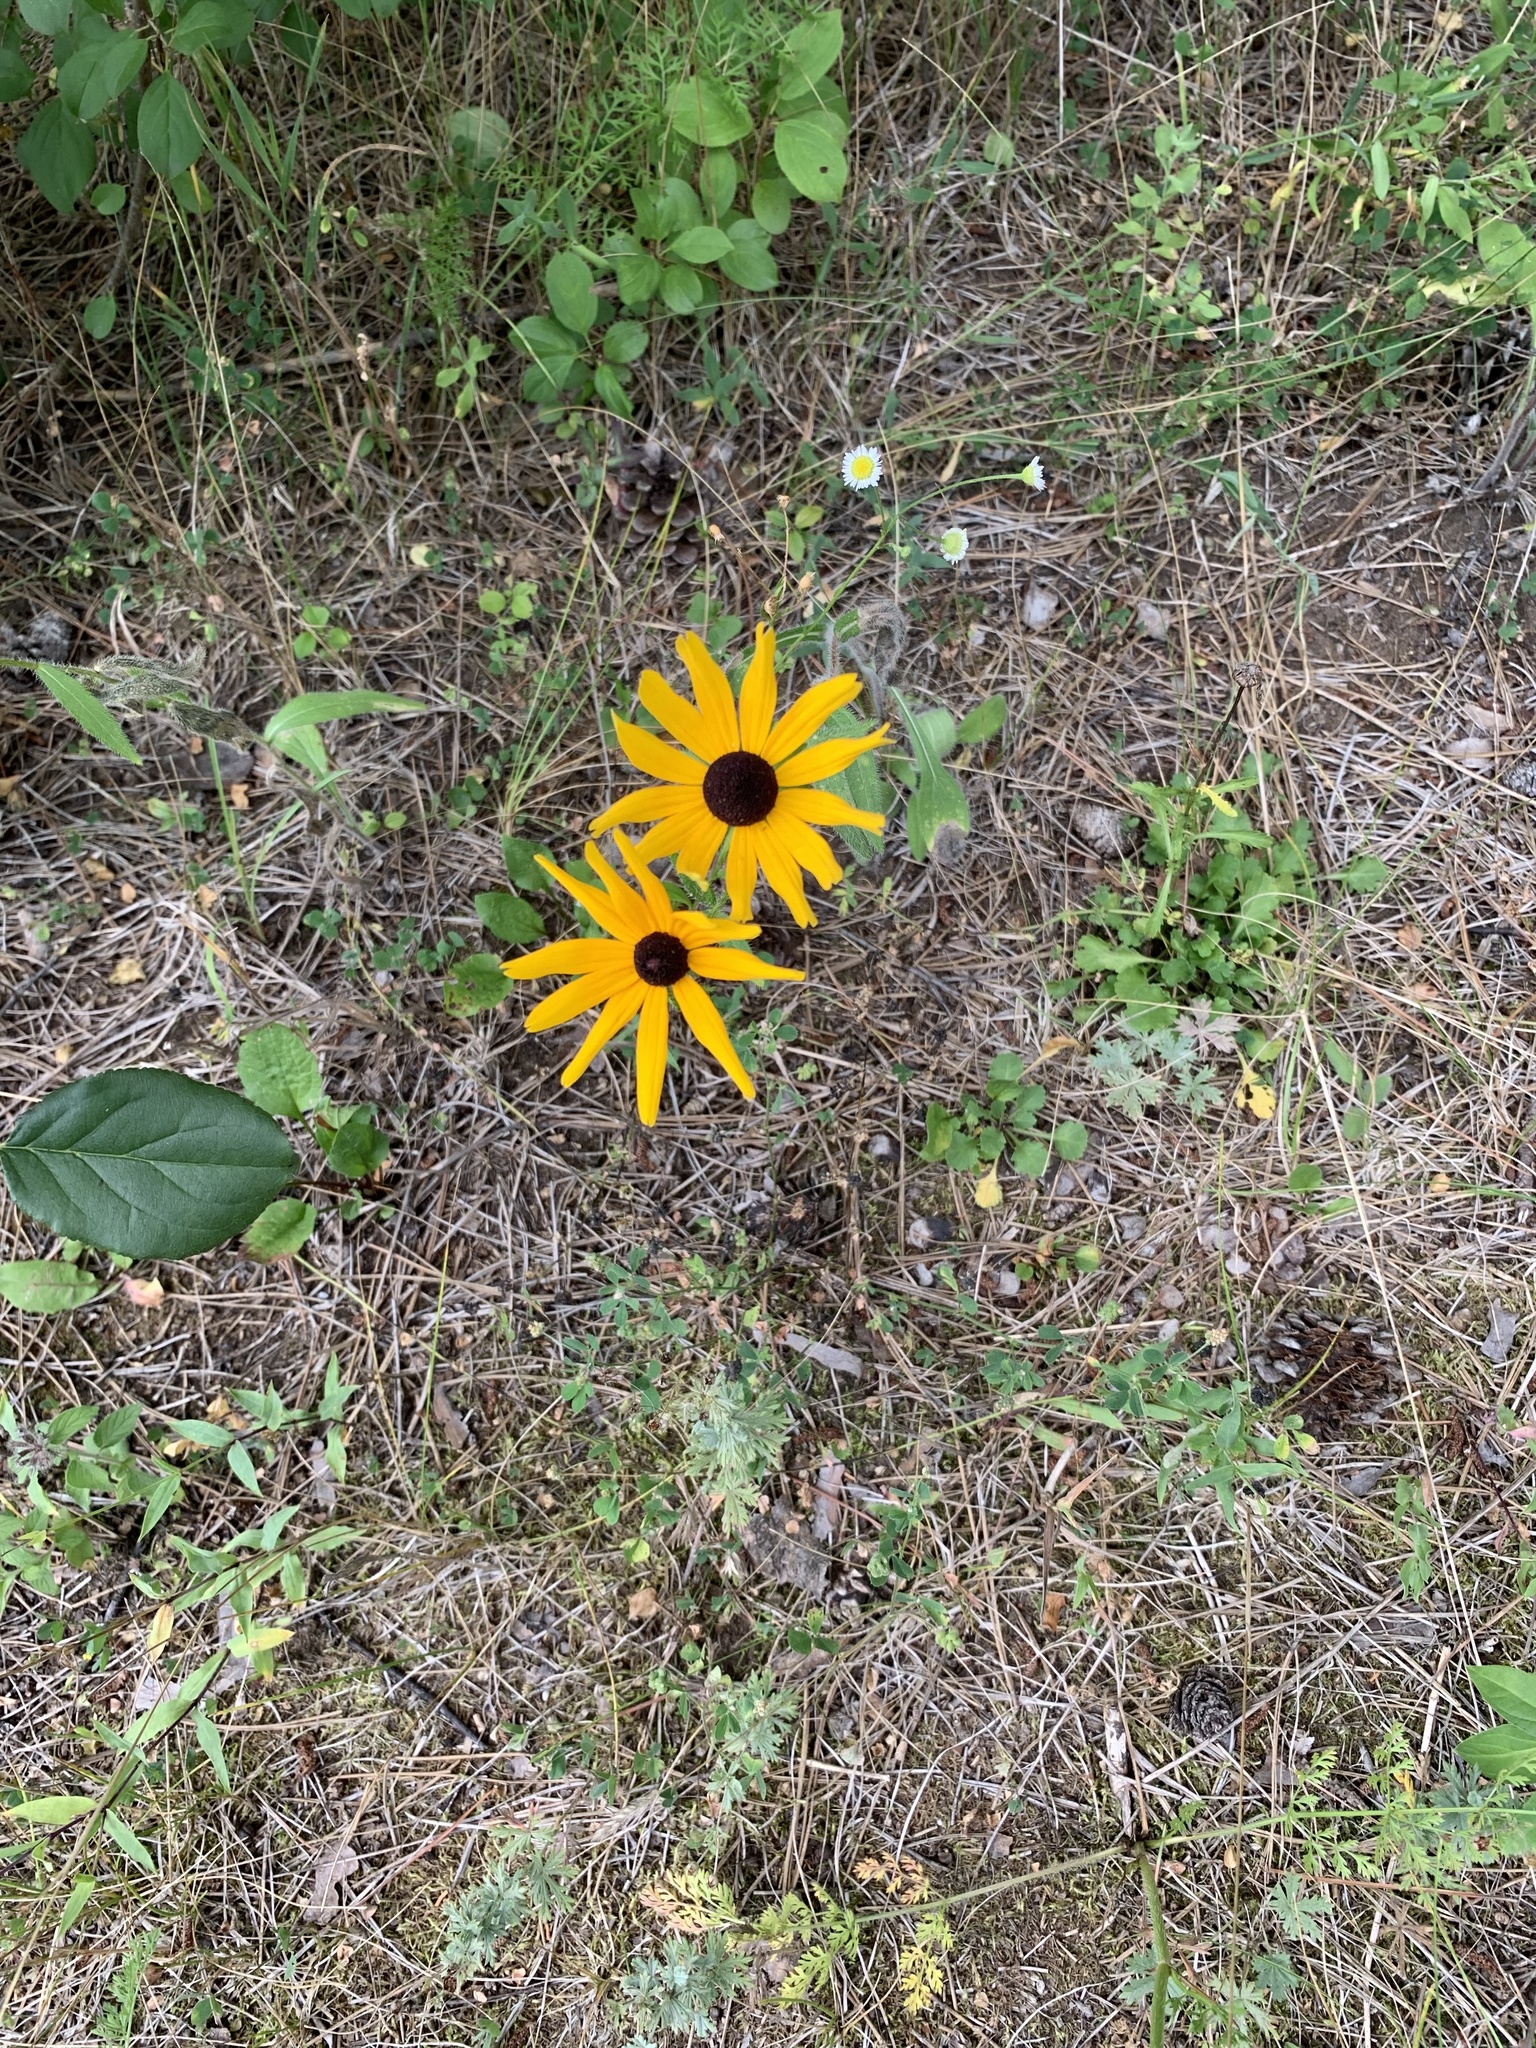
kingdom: Plantae
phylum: Tracheophyta
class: Magnoliopsida
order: Asterales
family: Asteraceae
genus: Rudbeckia
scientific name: Rudbeckia hirta
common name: Black-eyed-susan
